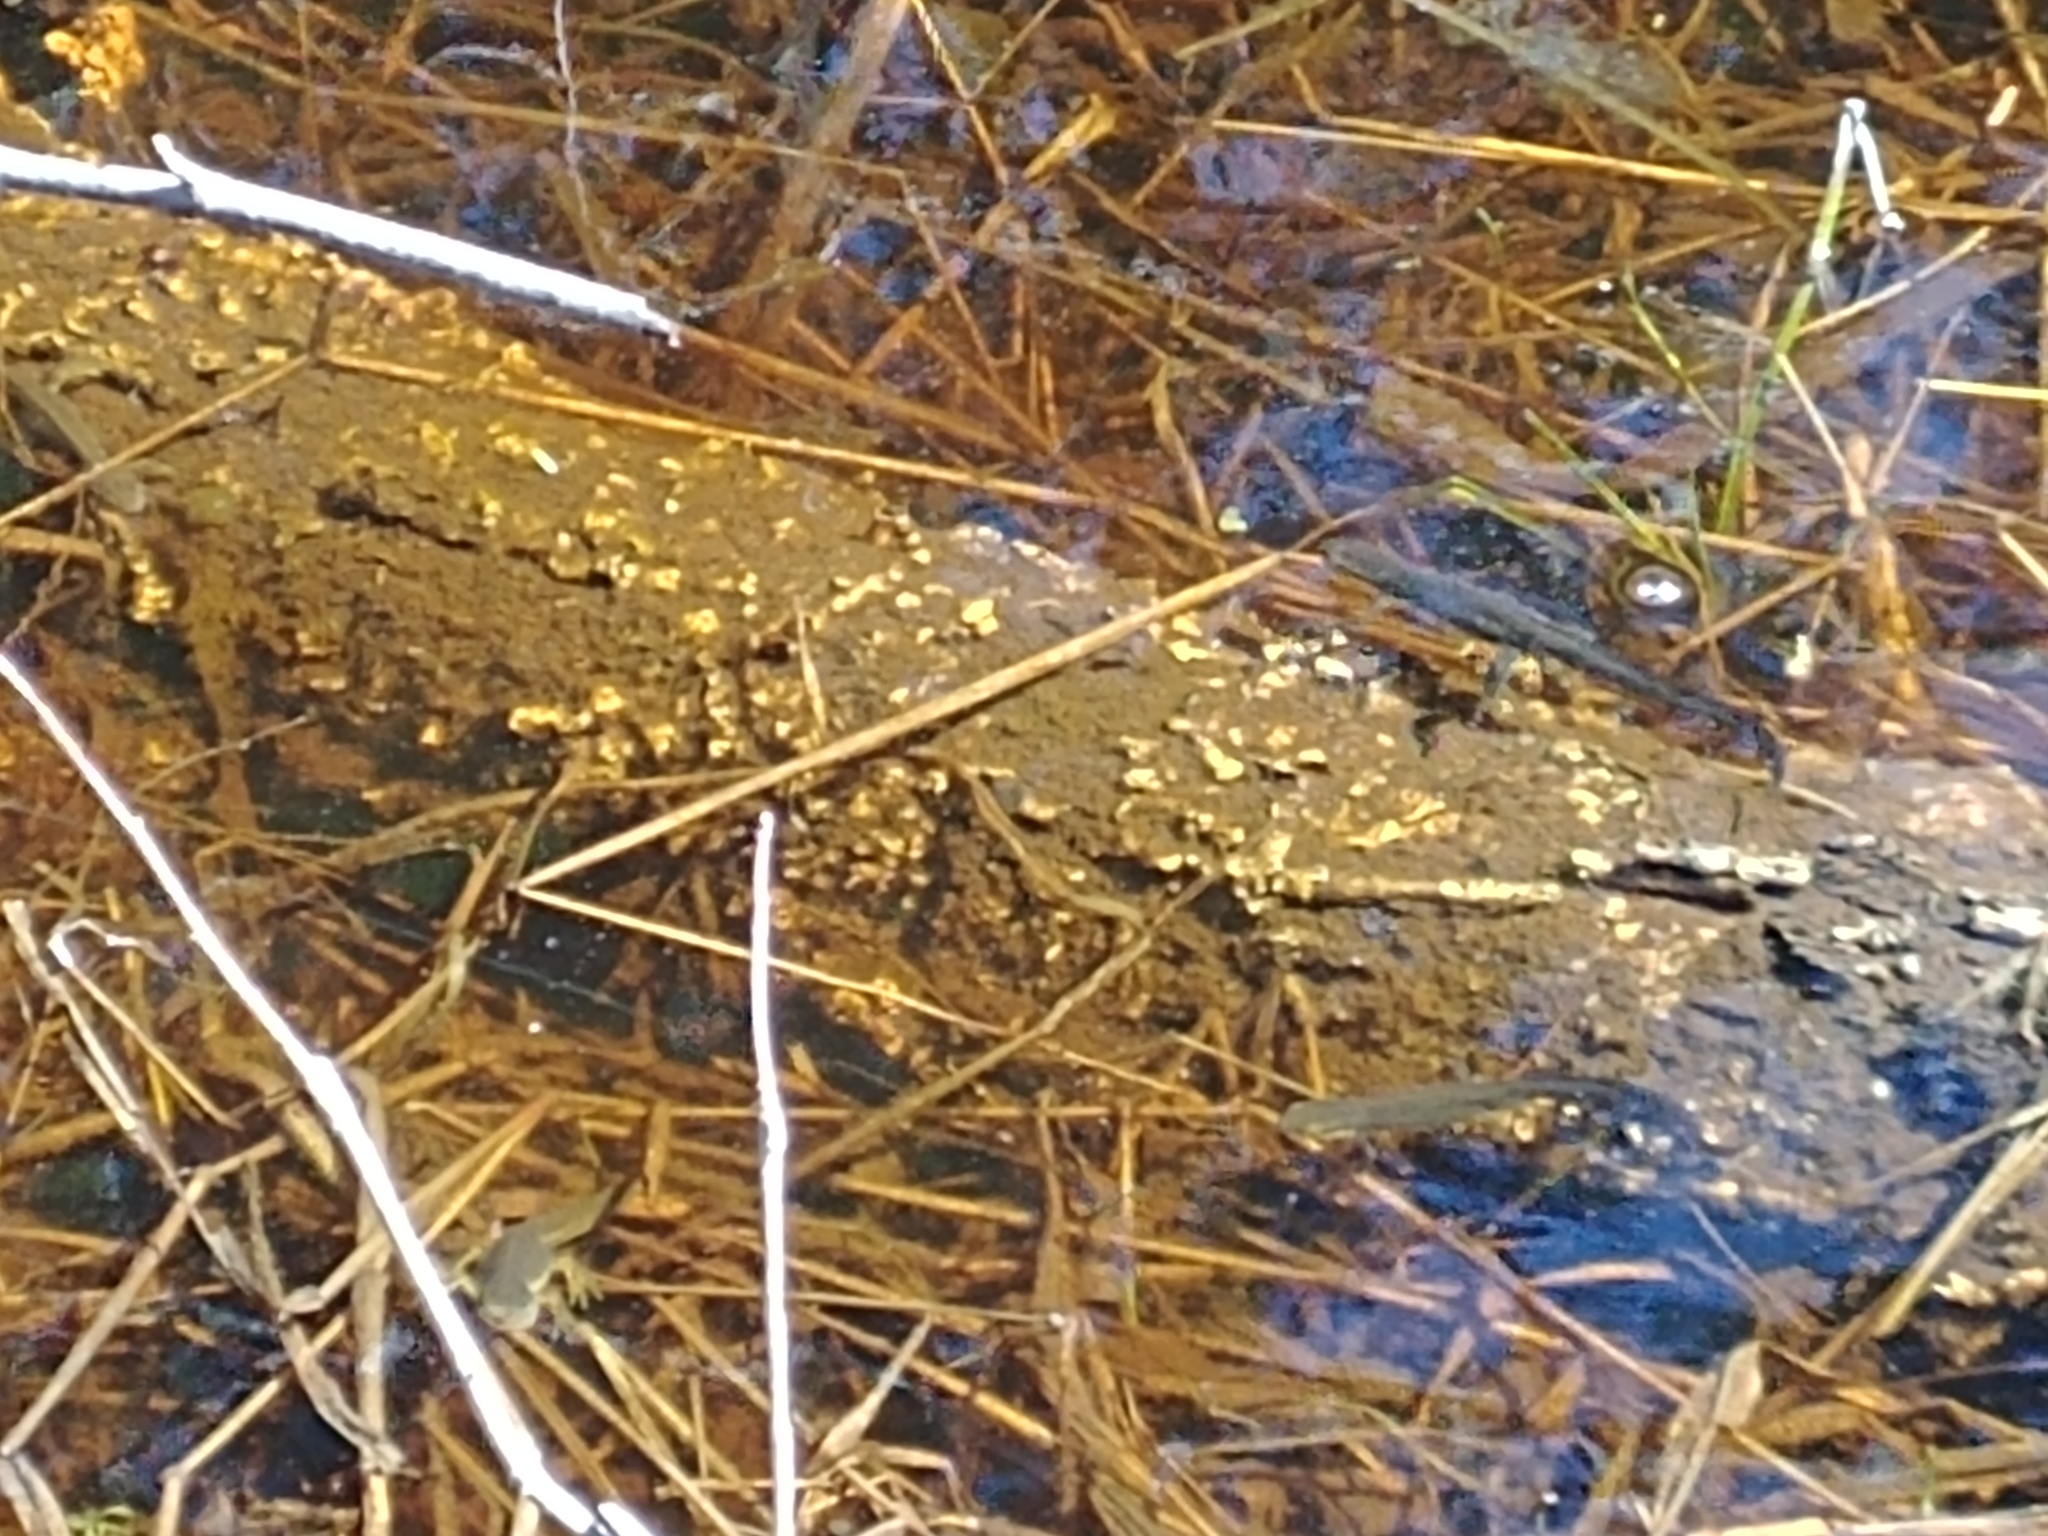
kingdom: Animalia
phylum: Chordata
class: Amphibia
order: Caudata
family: Salamandridae
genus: Notophthalmus
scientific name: Notophthalmus viridescens
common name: Eastern newt
